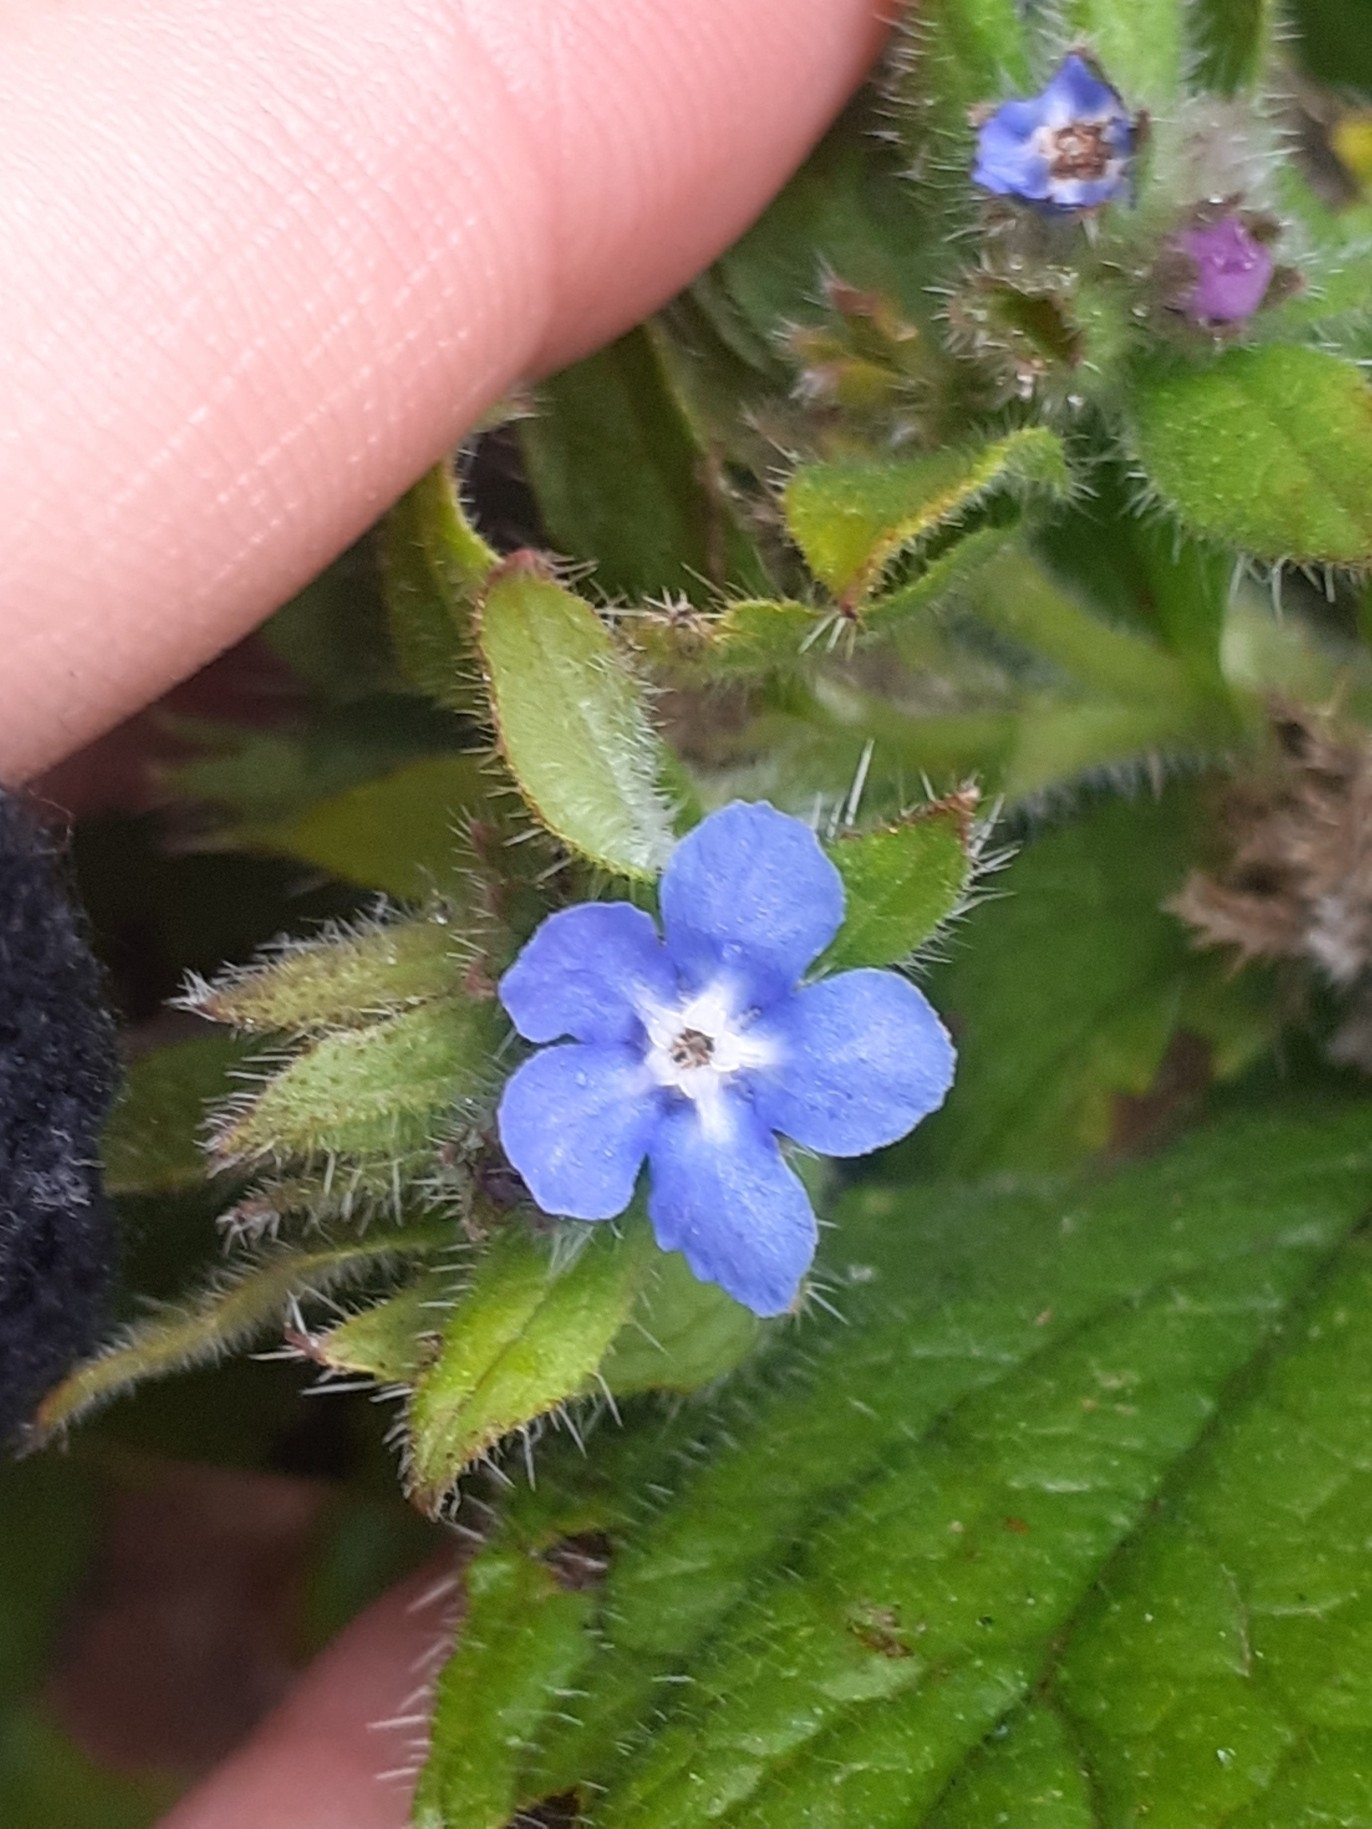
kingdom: Plantae
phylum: Tracheophyta
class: Magnoliopsida
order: Boraginales
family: Boraginaceae
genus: Pentaglottis
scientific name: Pentaglottis sempervirens
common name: Green alkanet
